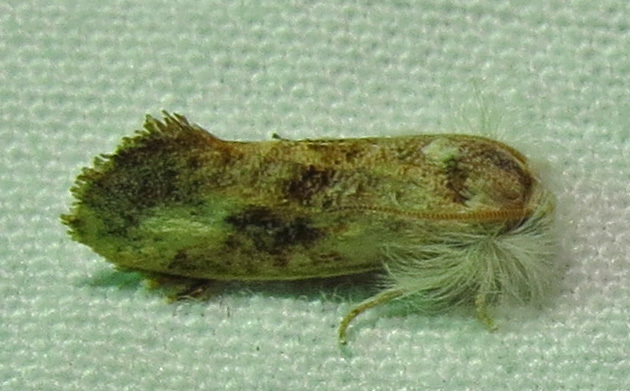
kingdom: Animalia
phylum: Arthropoda
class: Insecta
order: Lepidoptera
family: Tineidae
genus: Acrolophus
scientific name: Acrolophus mycetophagus
